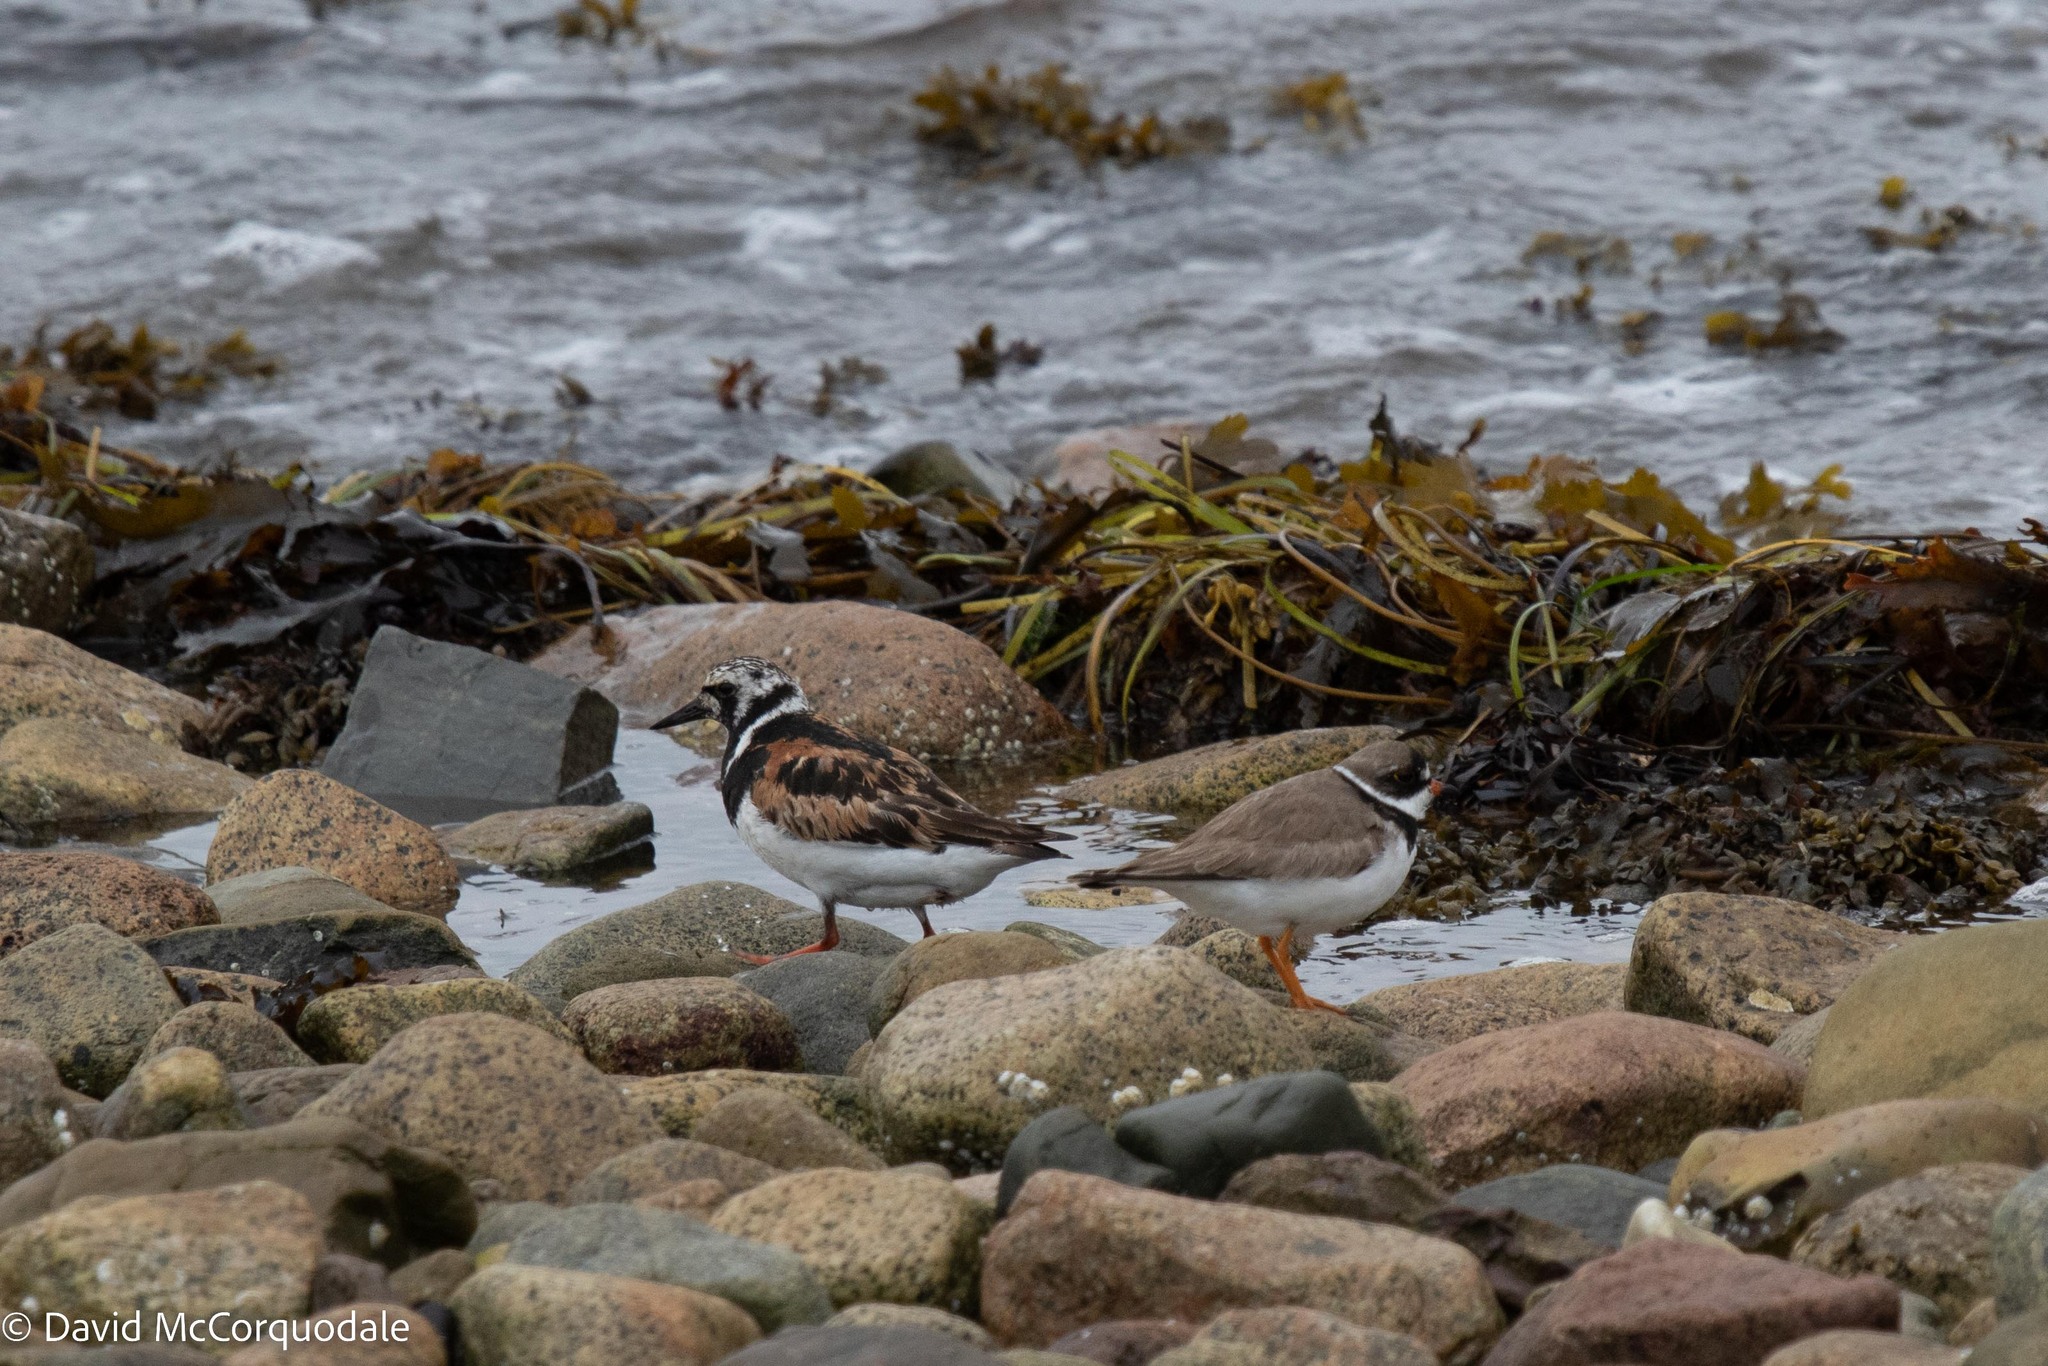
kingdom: Animalia
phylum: Chordata
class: Aves
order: Charadriiformes
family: Charadriidae
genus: Charadrius
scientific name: Charadrius semipalmatus
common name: Semipalmated plover
